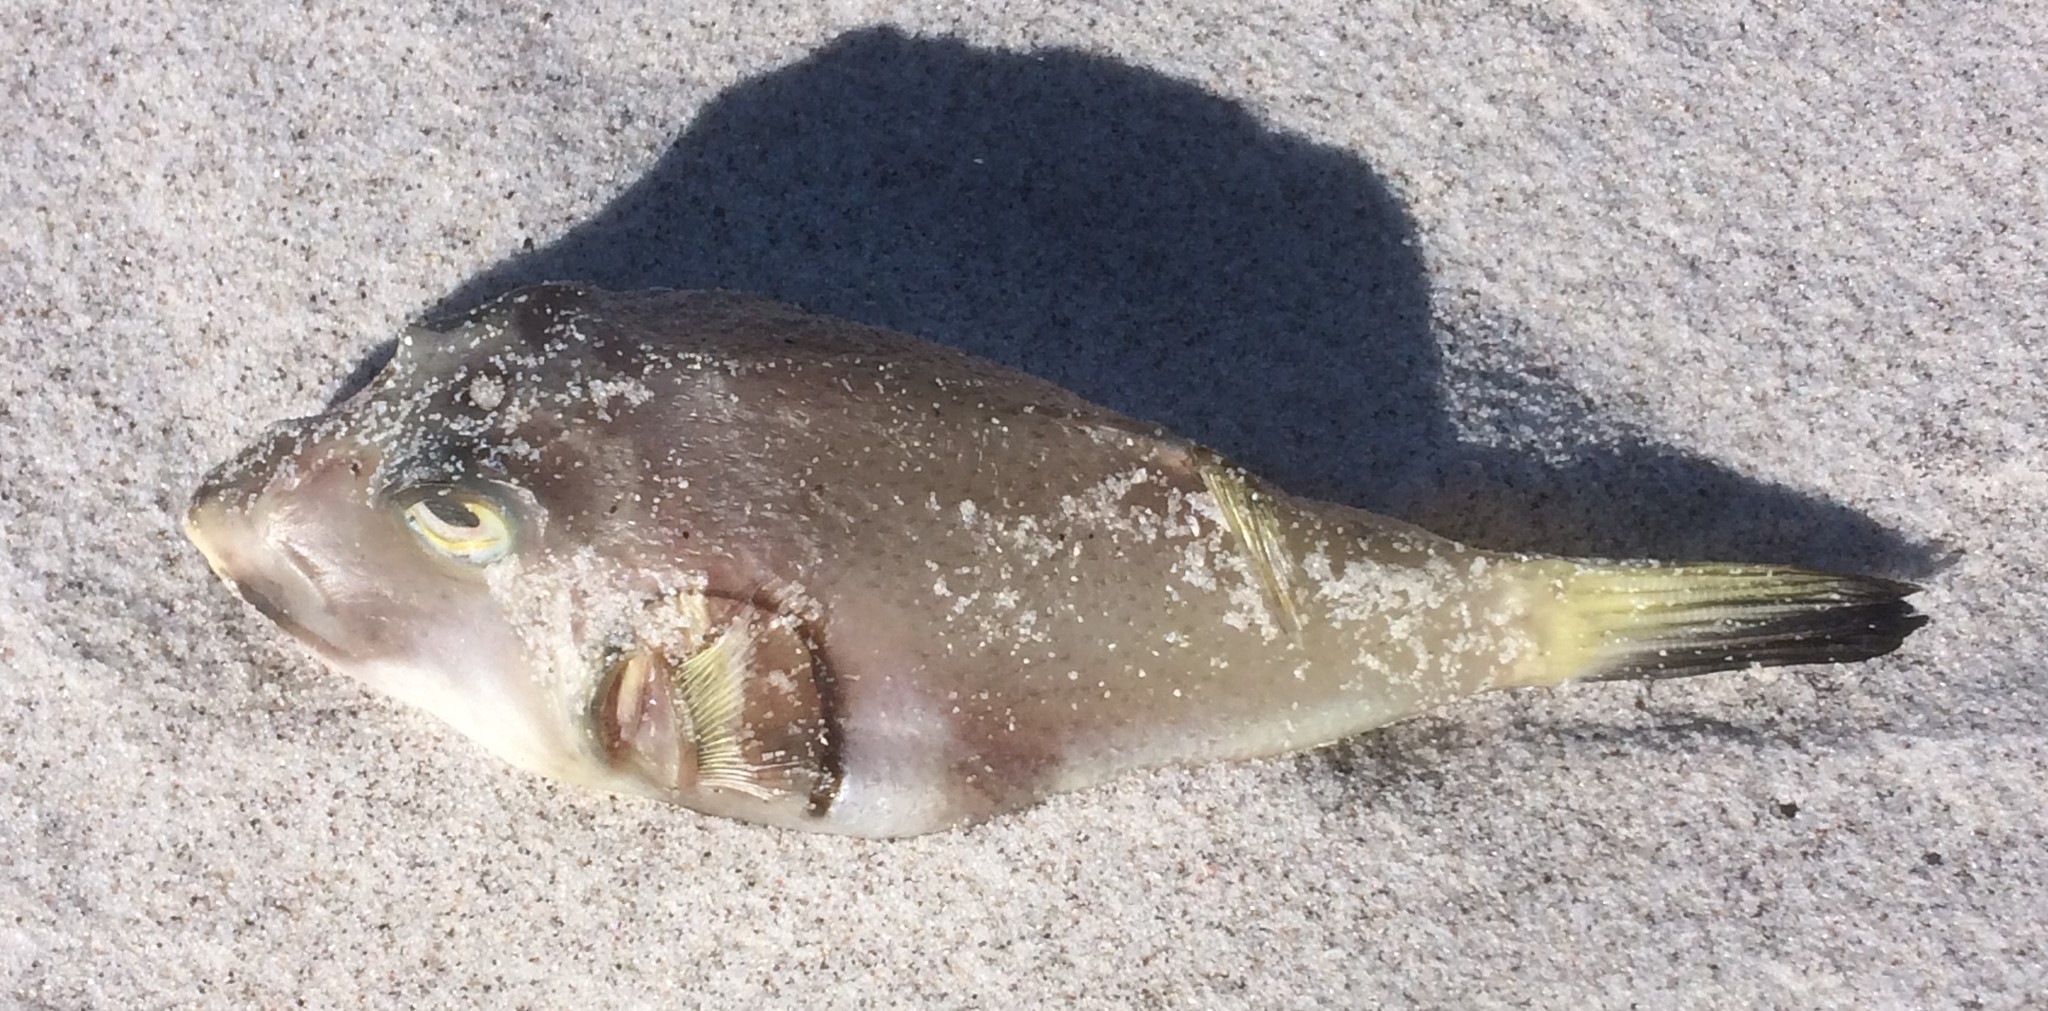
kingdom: Animalia
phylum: Chordata
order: Tetraodontiformes
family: Tetraodontidae
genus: Omegophora
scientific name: Omegophora armilla
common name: Ringed pufferfish
